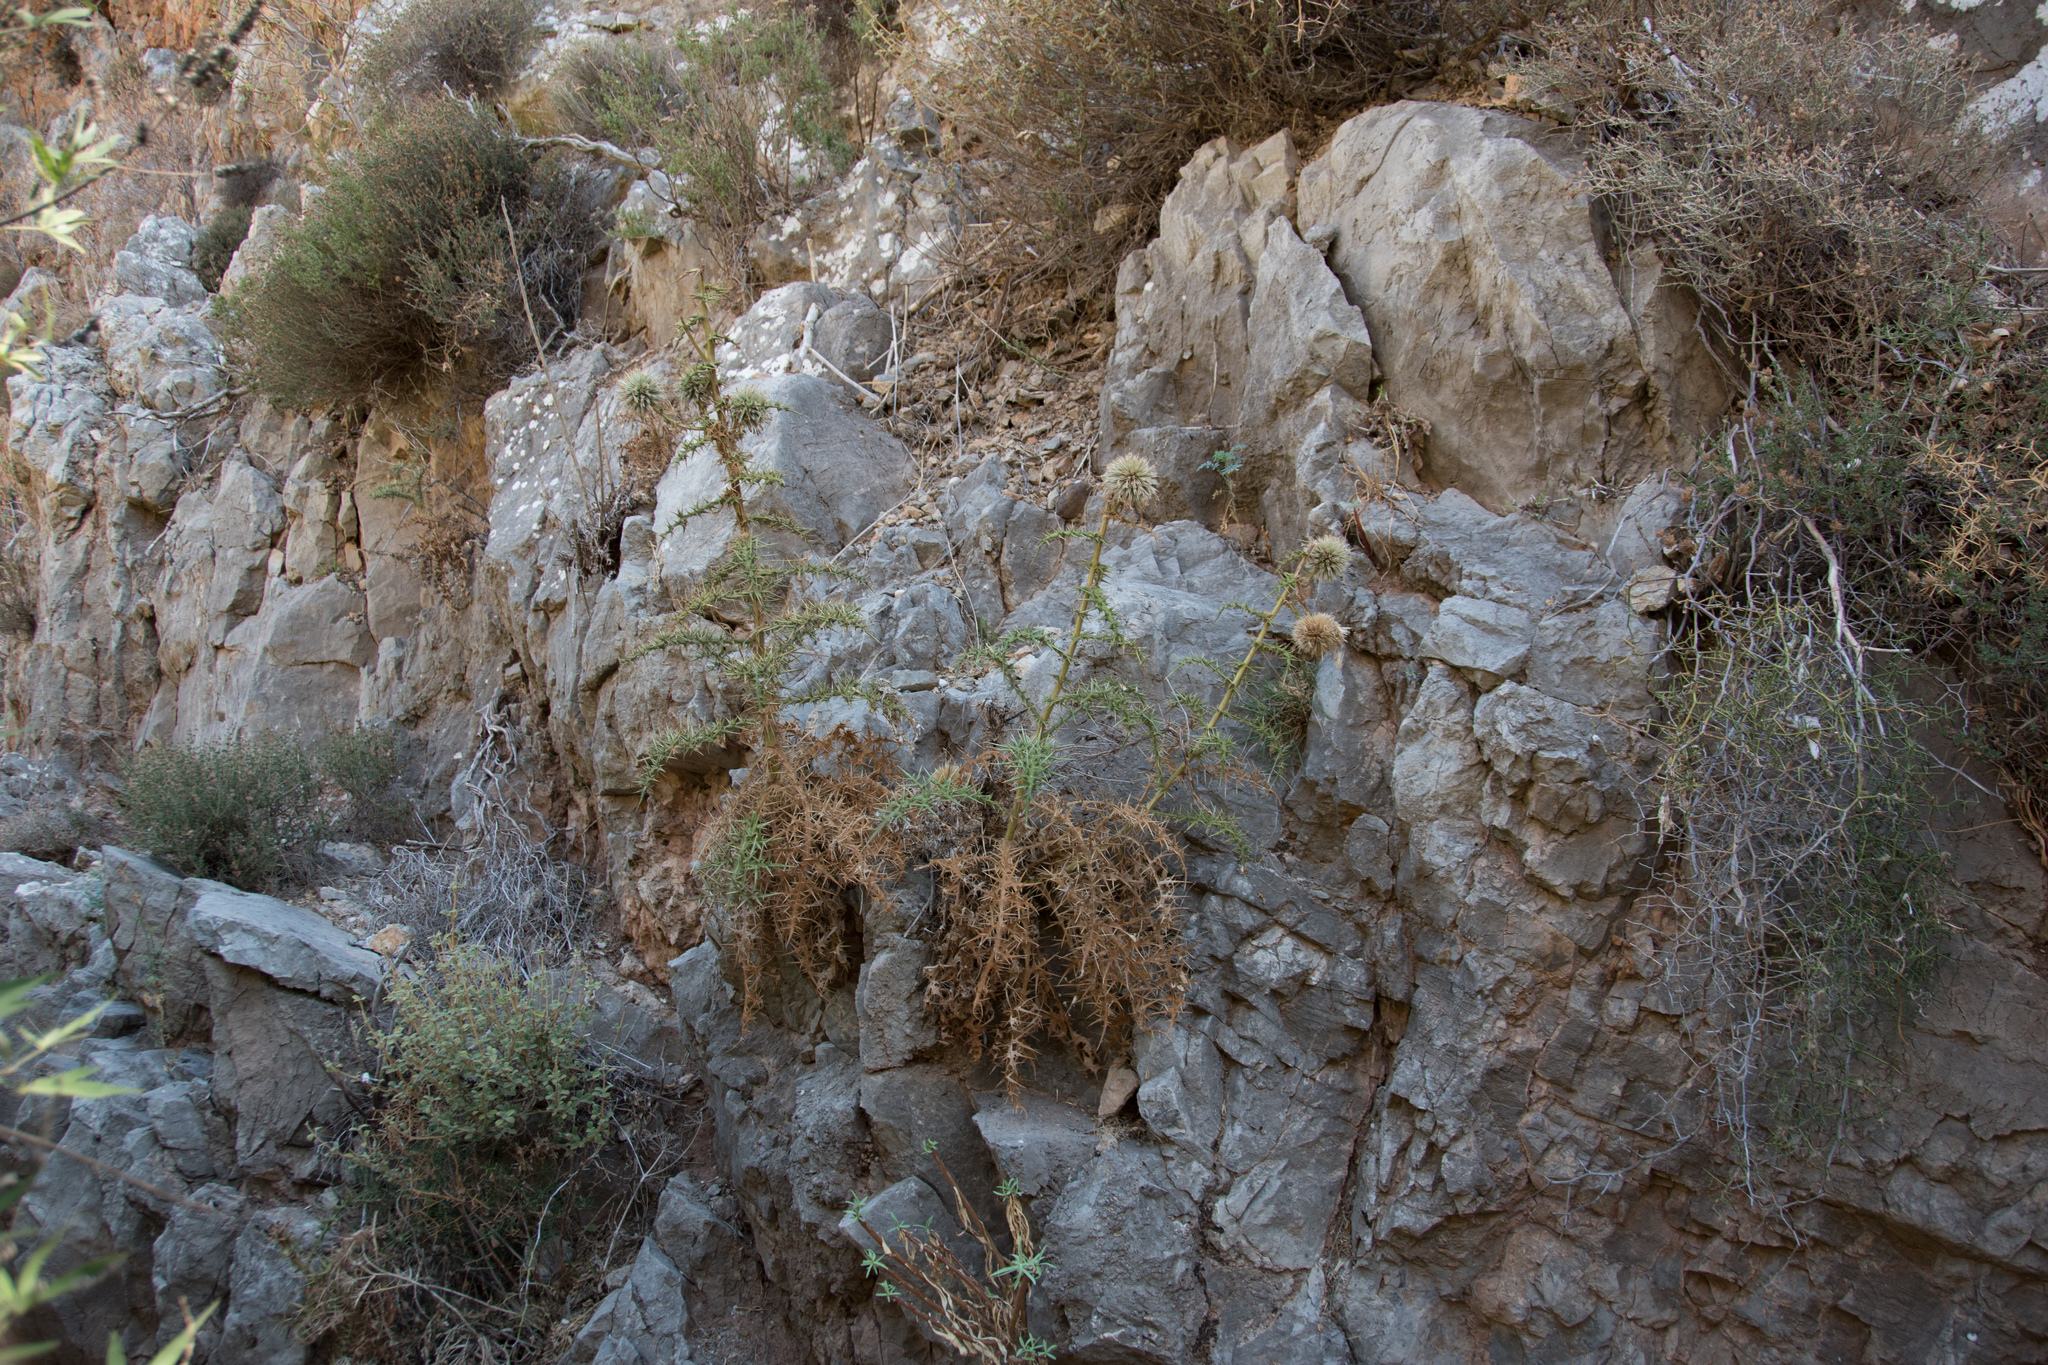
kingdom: Plantae
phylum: Tracheophyta
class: Magnoliopsida
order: Asterales
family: Asteraceae
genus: Echinops
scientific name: Echinops spinosissimus
